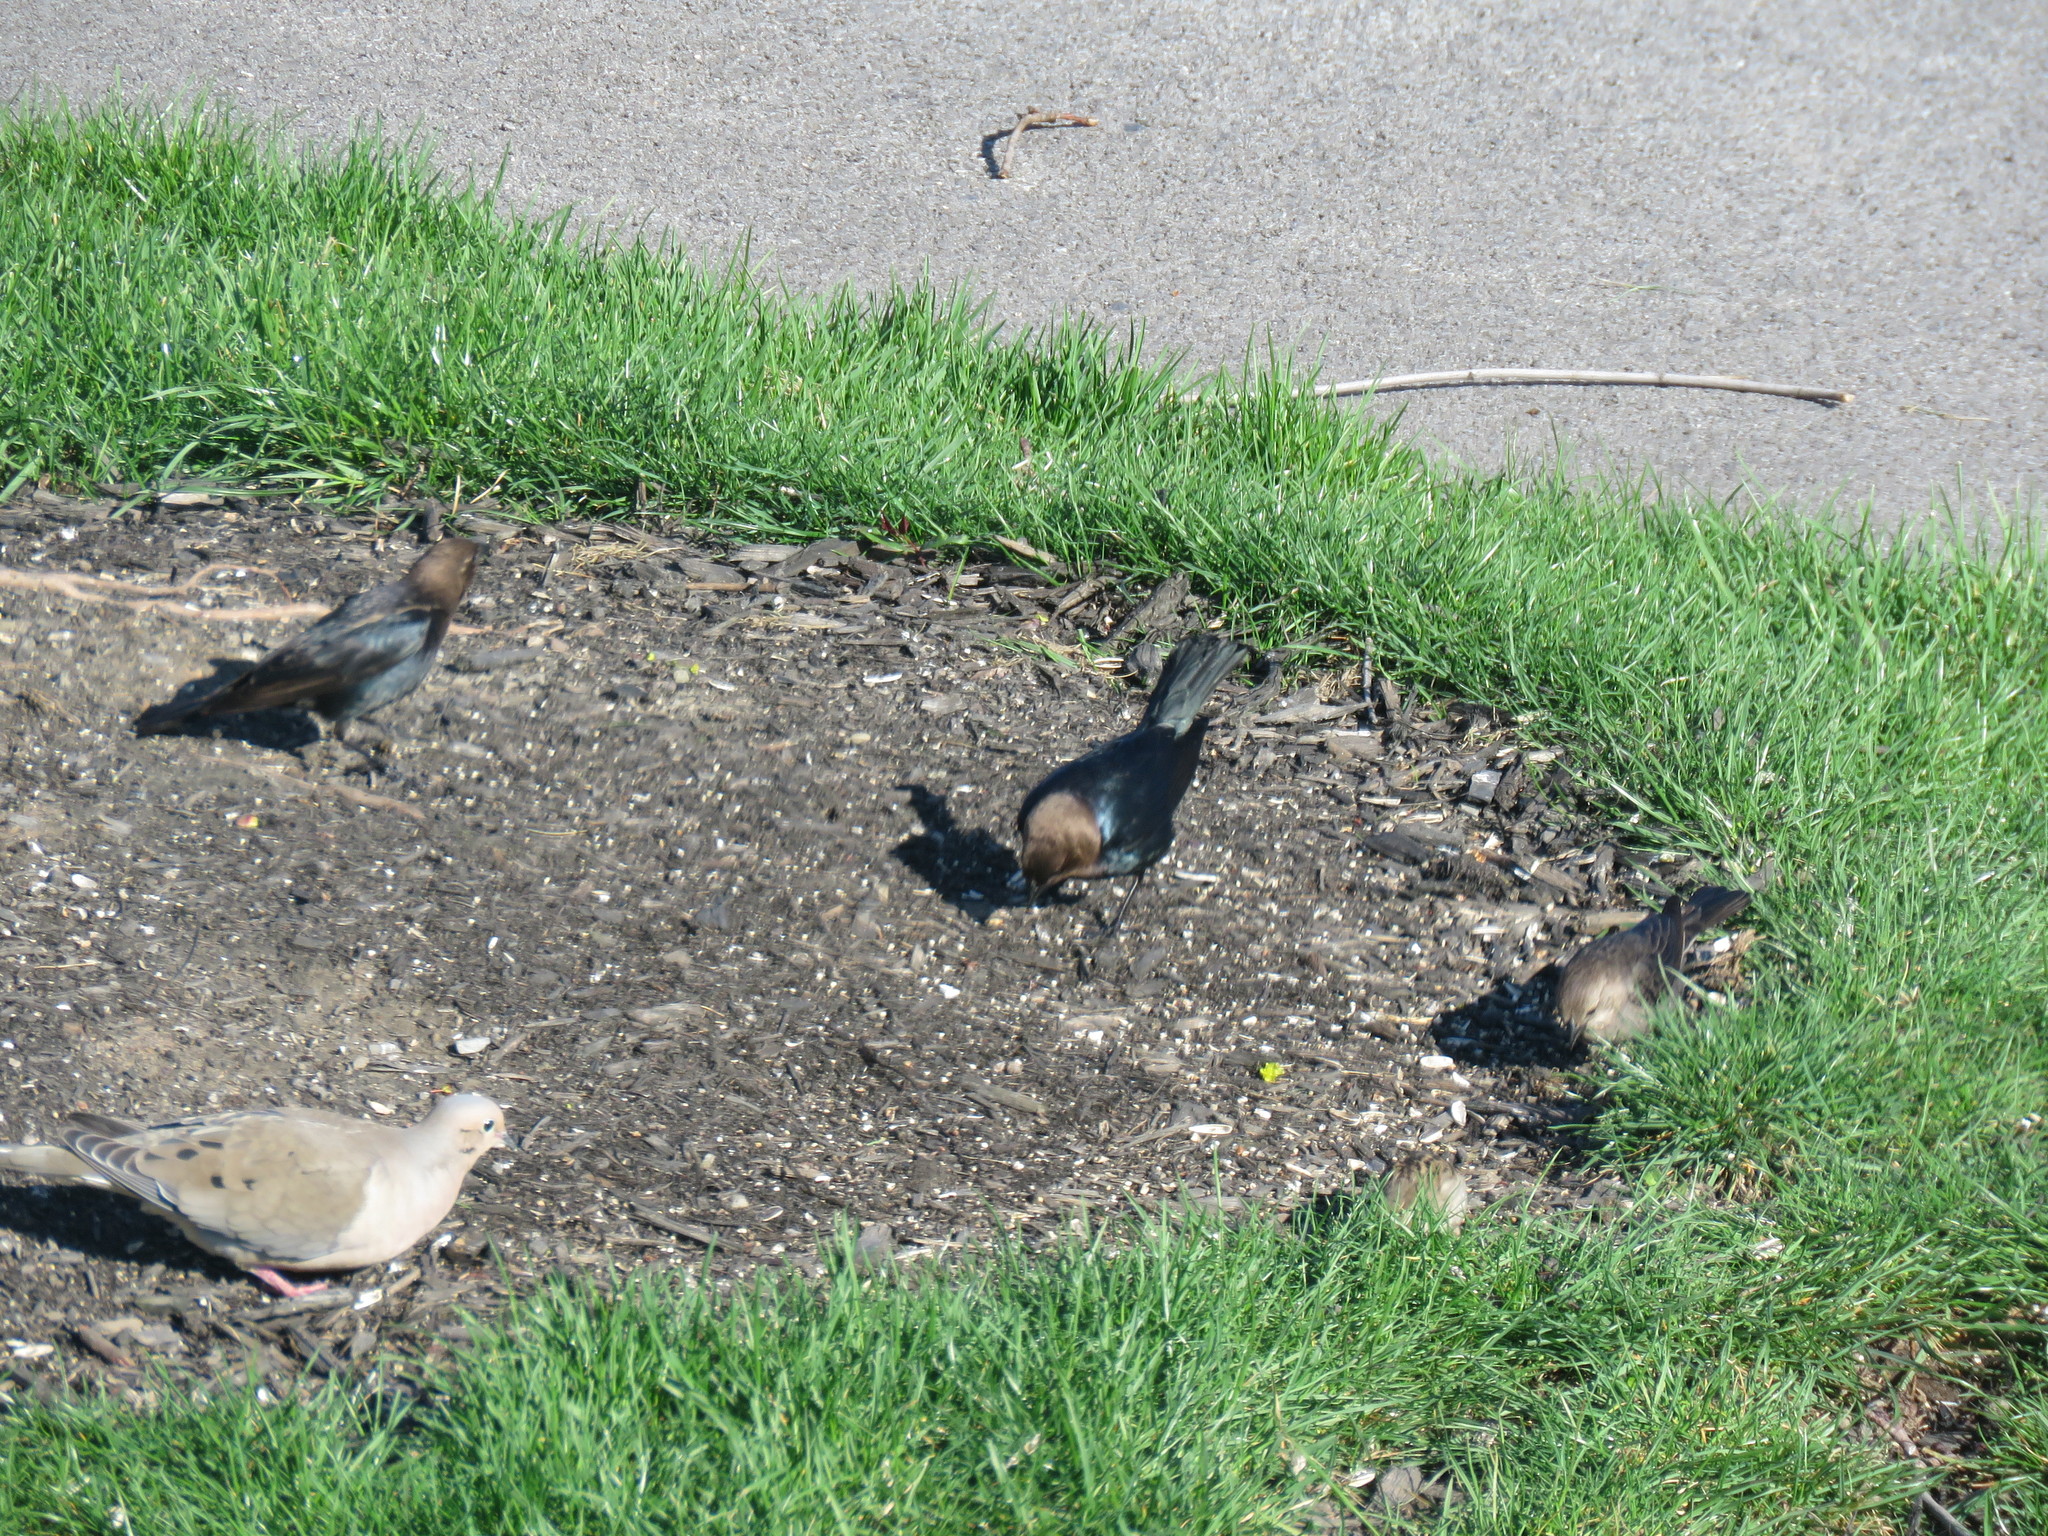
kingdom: Animalia
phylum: Chordata
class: Aves
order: Passeriformes
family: Icteridae
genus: Molothrus
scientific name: Molothrus ater
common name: Brown-headed cowbird
